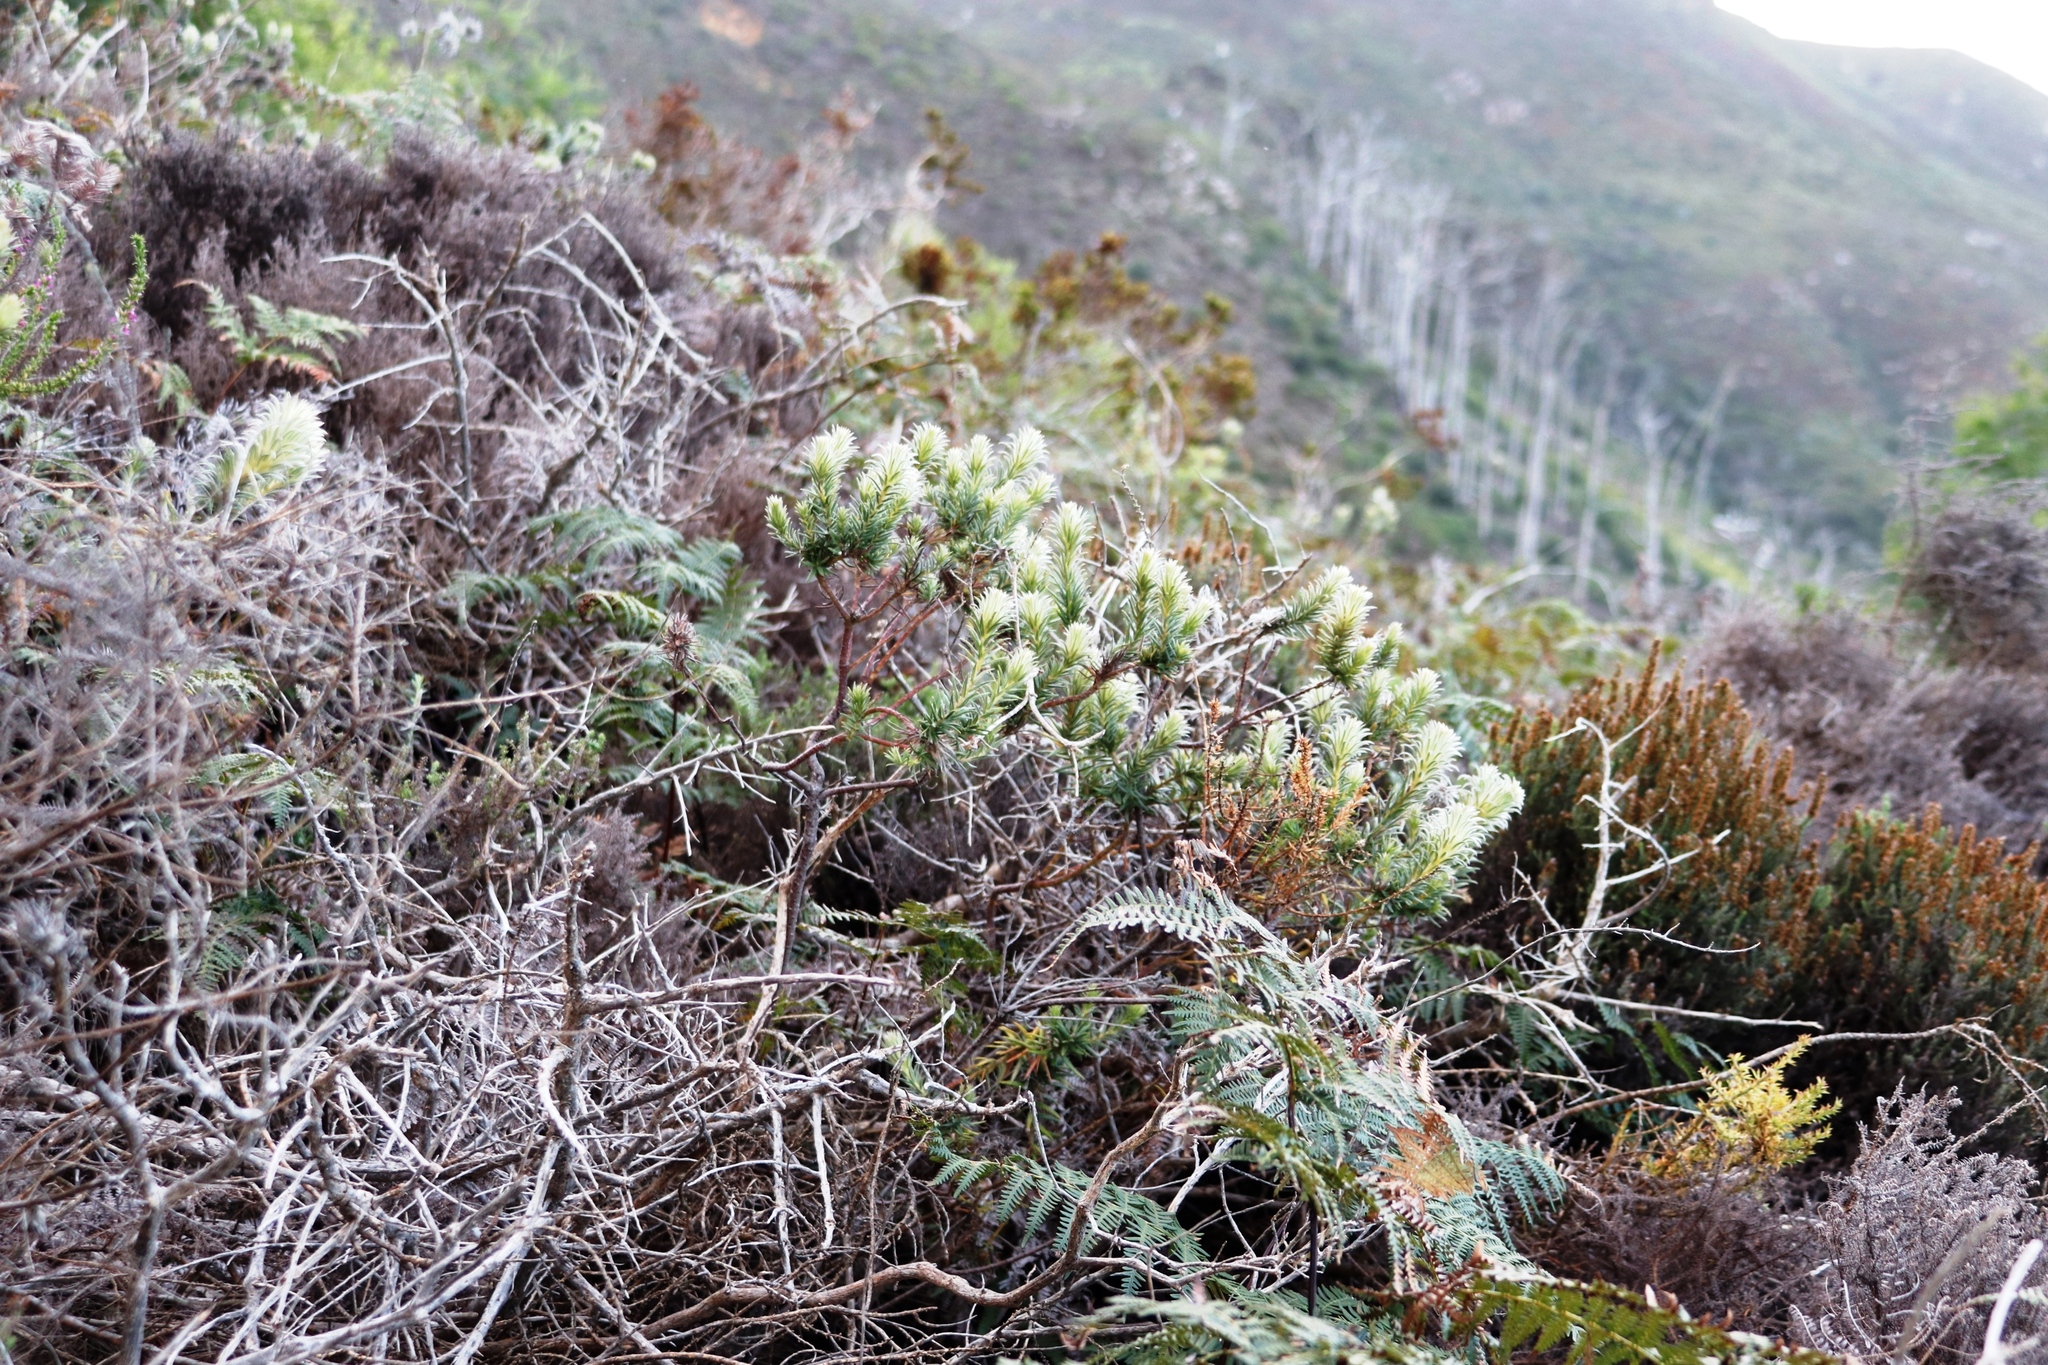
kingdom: Plantae
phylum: Tracheophyta
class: Magnoliopsida
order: Rosales
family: Rhamnaceae
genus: Phylica
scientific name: Phylica plumosa
